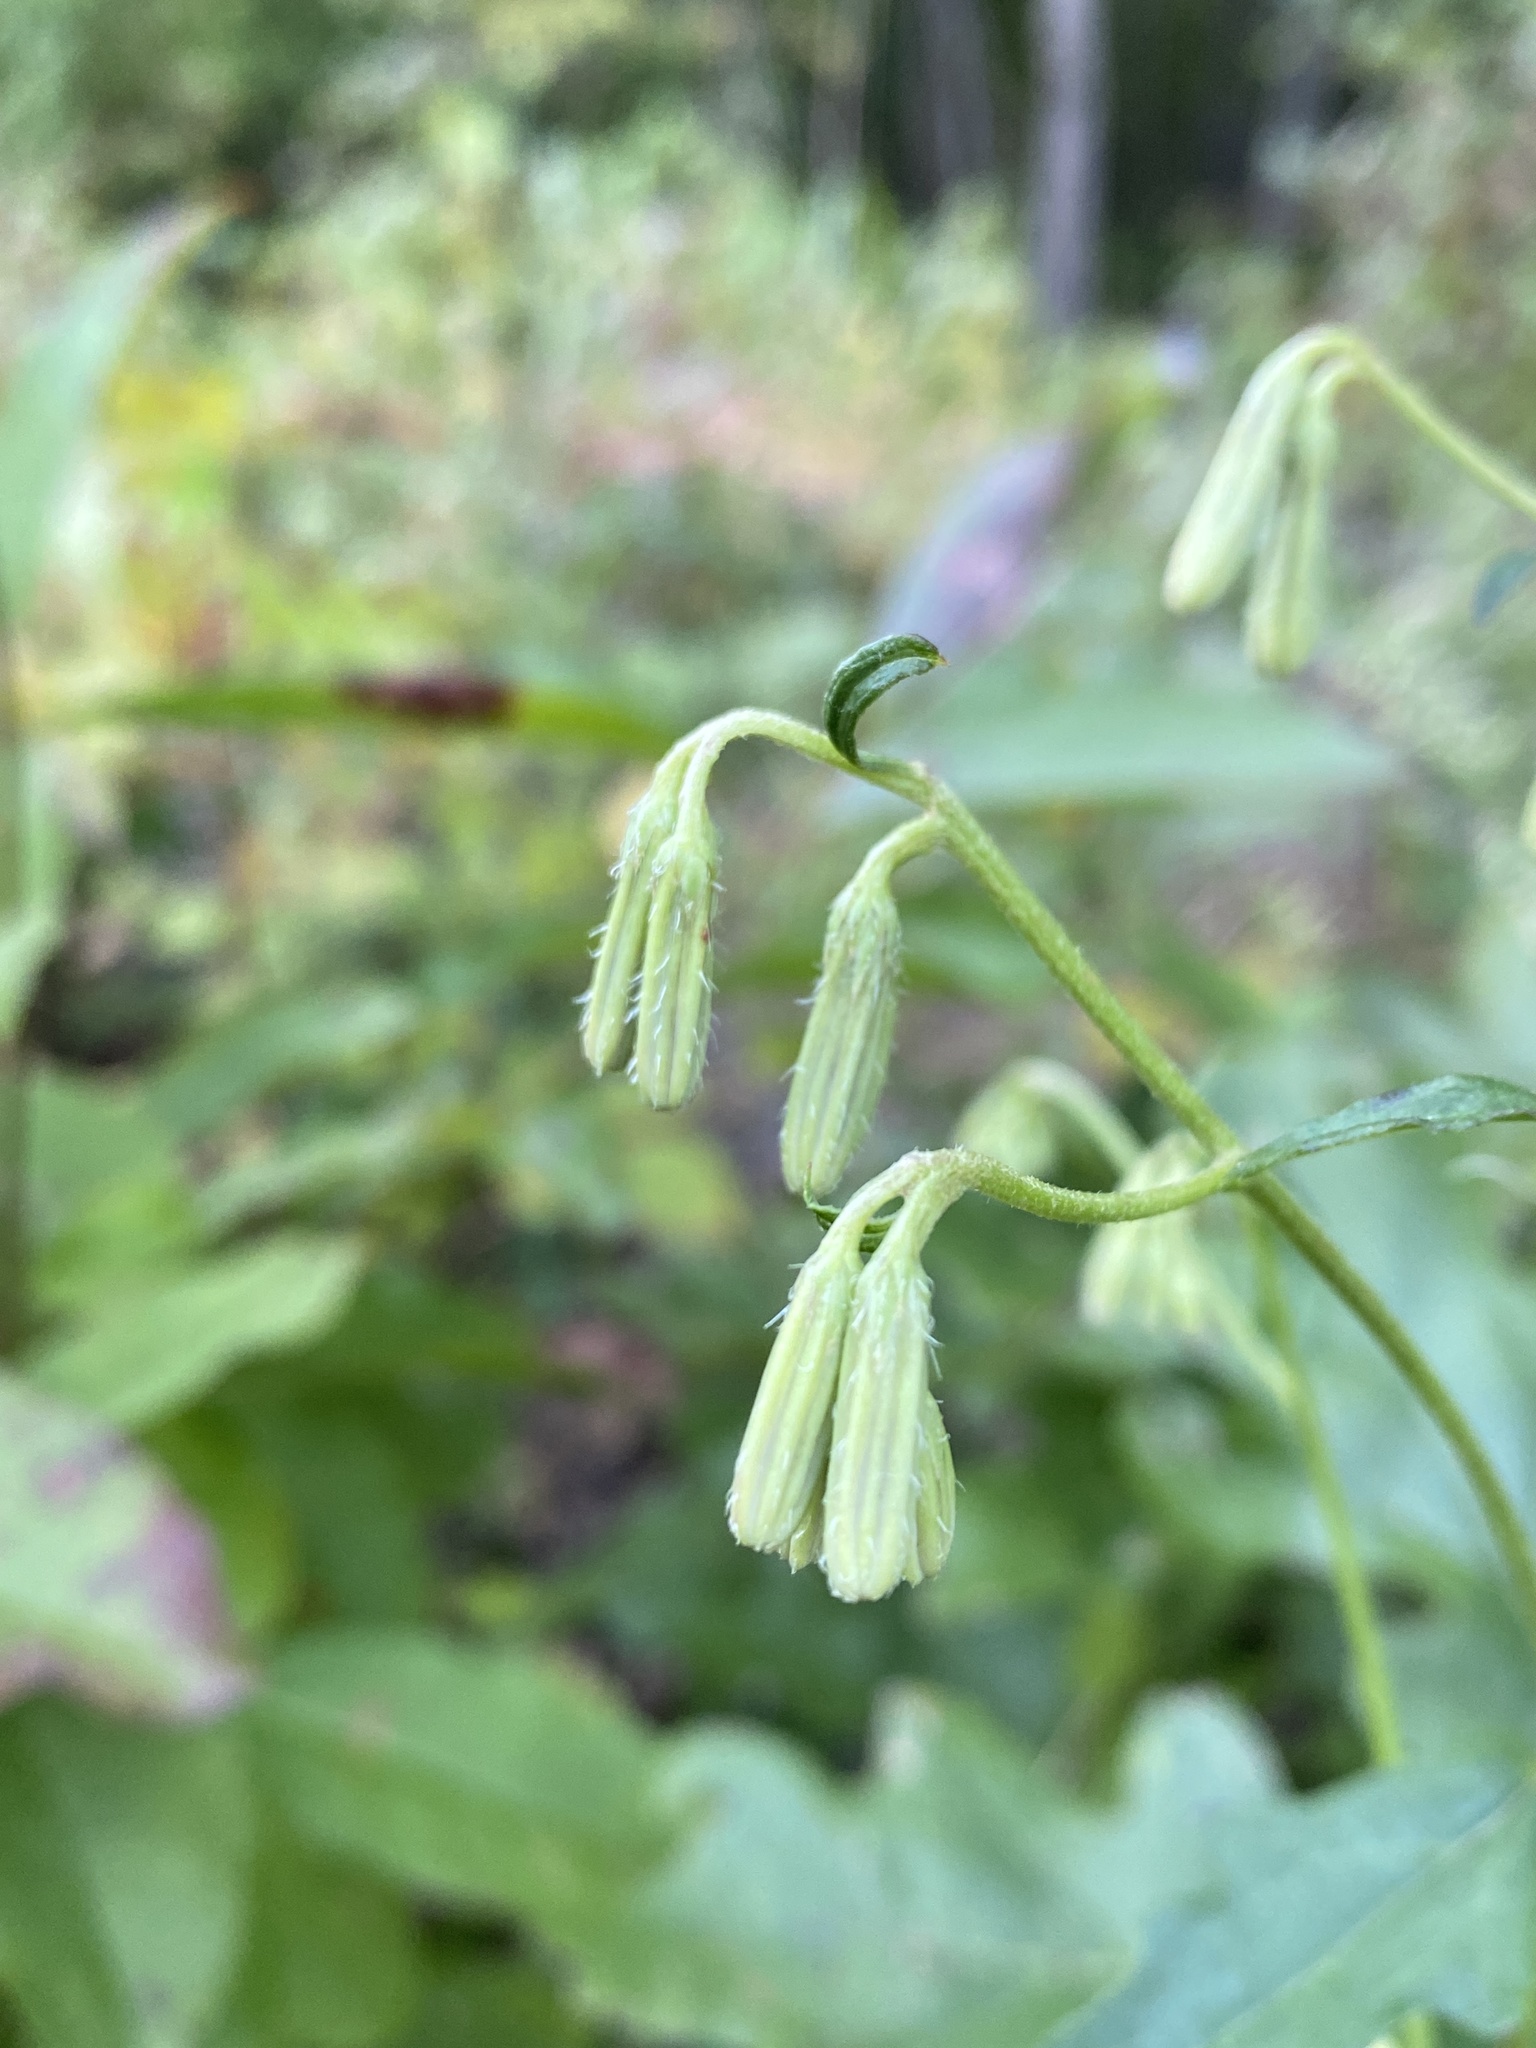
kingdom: Plantae
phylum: Tracheophyta
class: Magnoliopsida
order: Asterales
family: Asteraceae
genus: Nabalus
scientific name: Nabalus serpentarius
